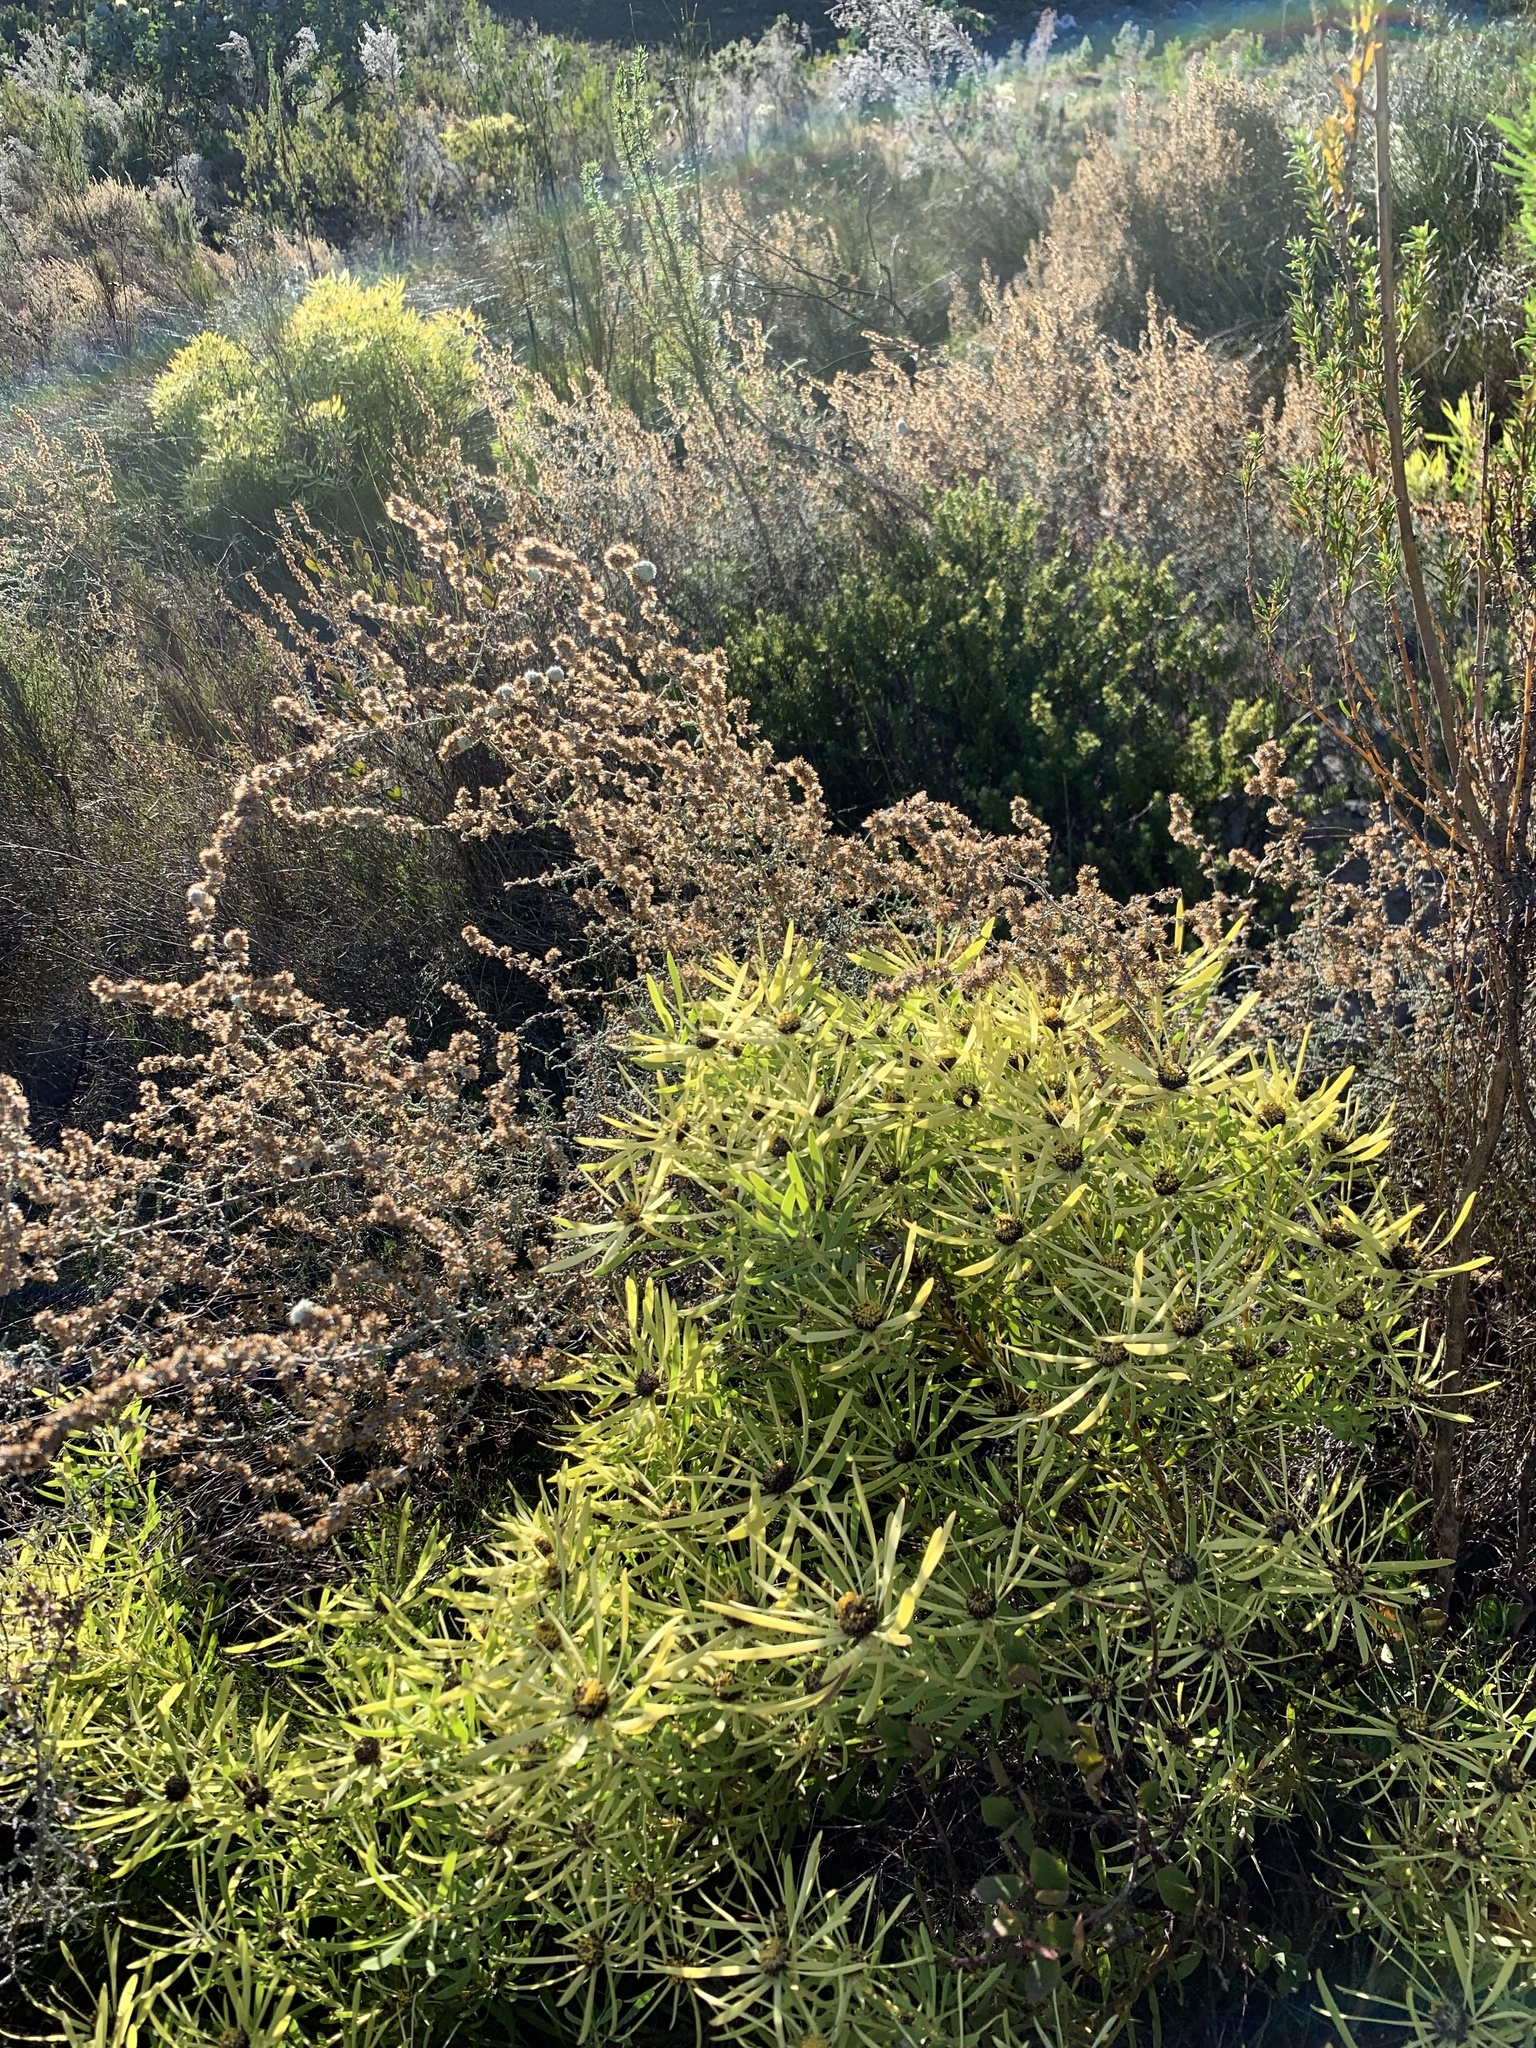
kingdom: Plantae
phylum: Tracheophyta
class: Magnoliopsida
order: Proteales
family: Proteaceae
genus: Leucadendron
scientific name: Leucadendron salignum
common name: Common sunshine conebush
